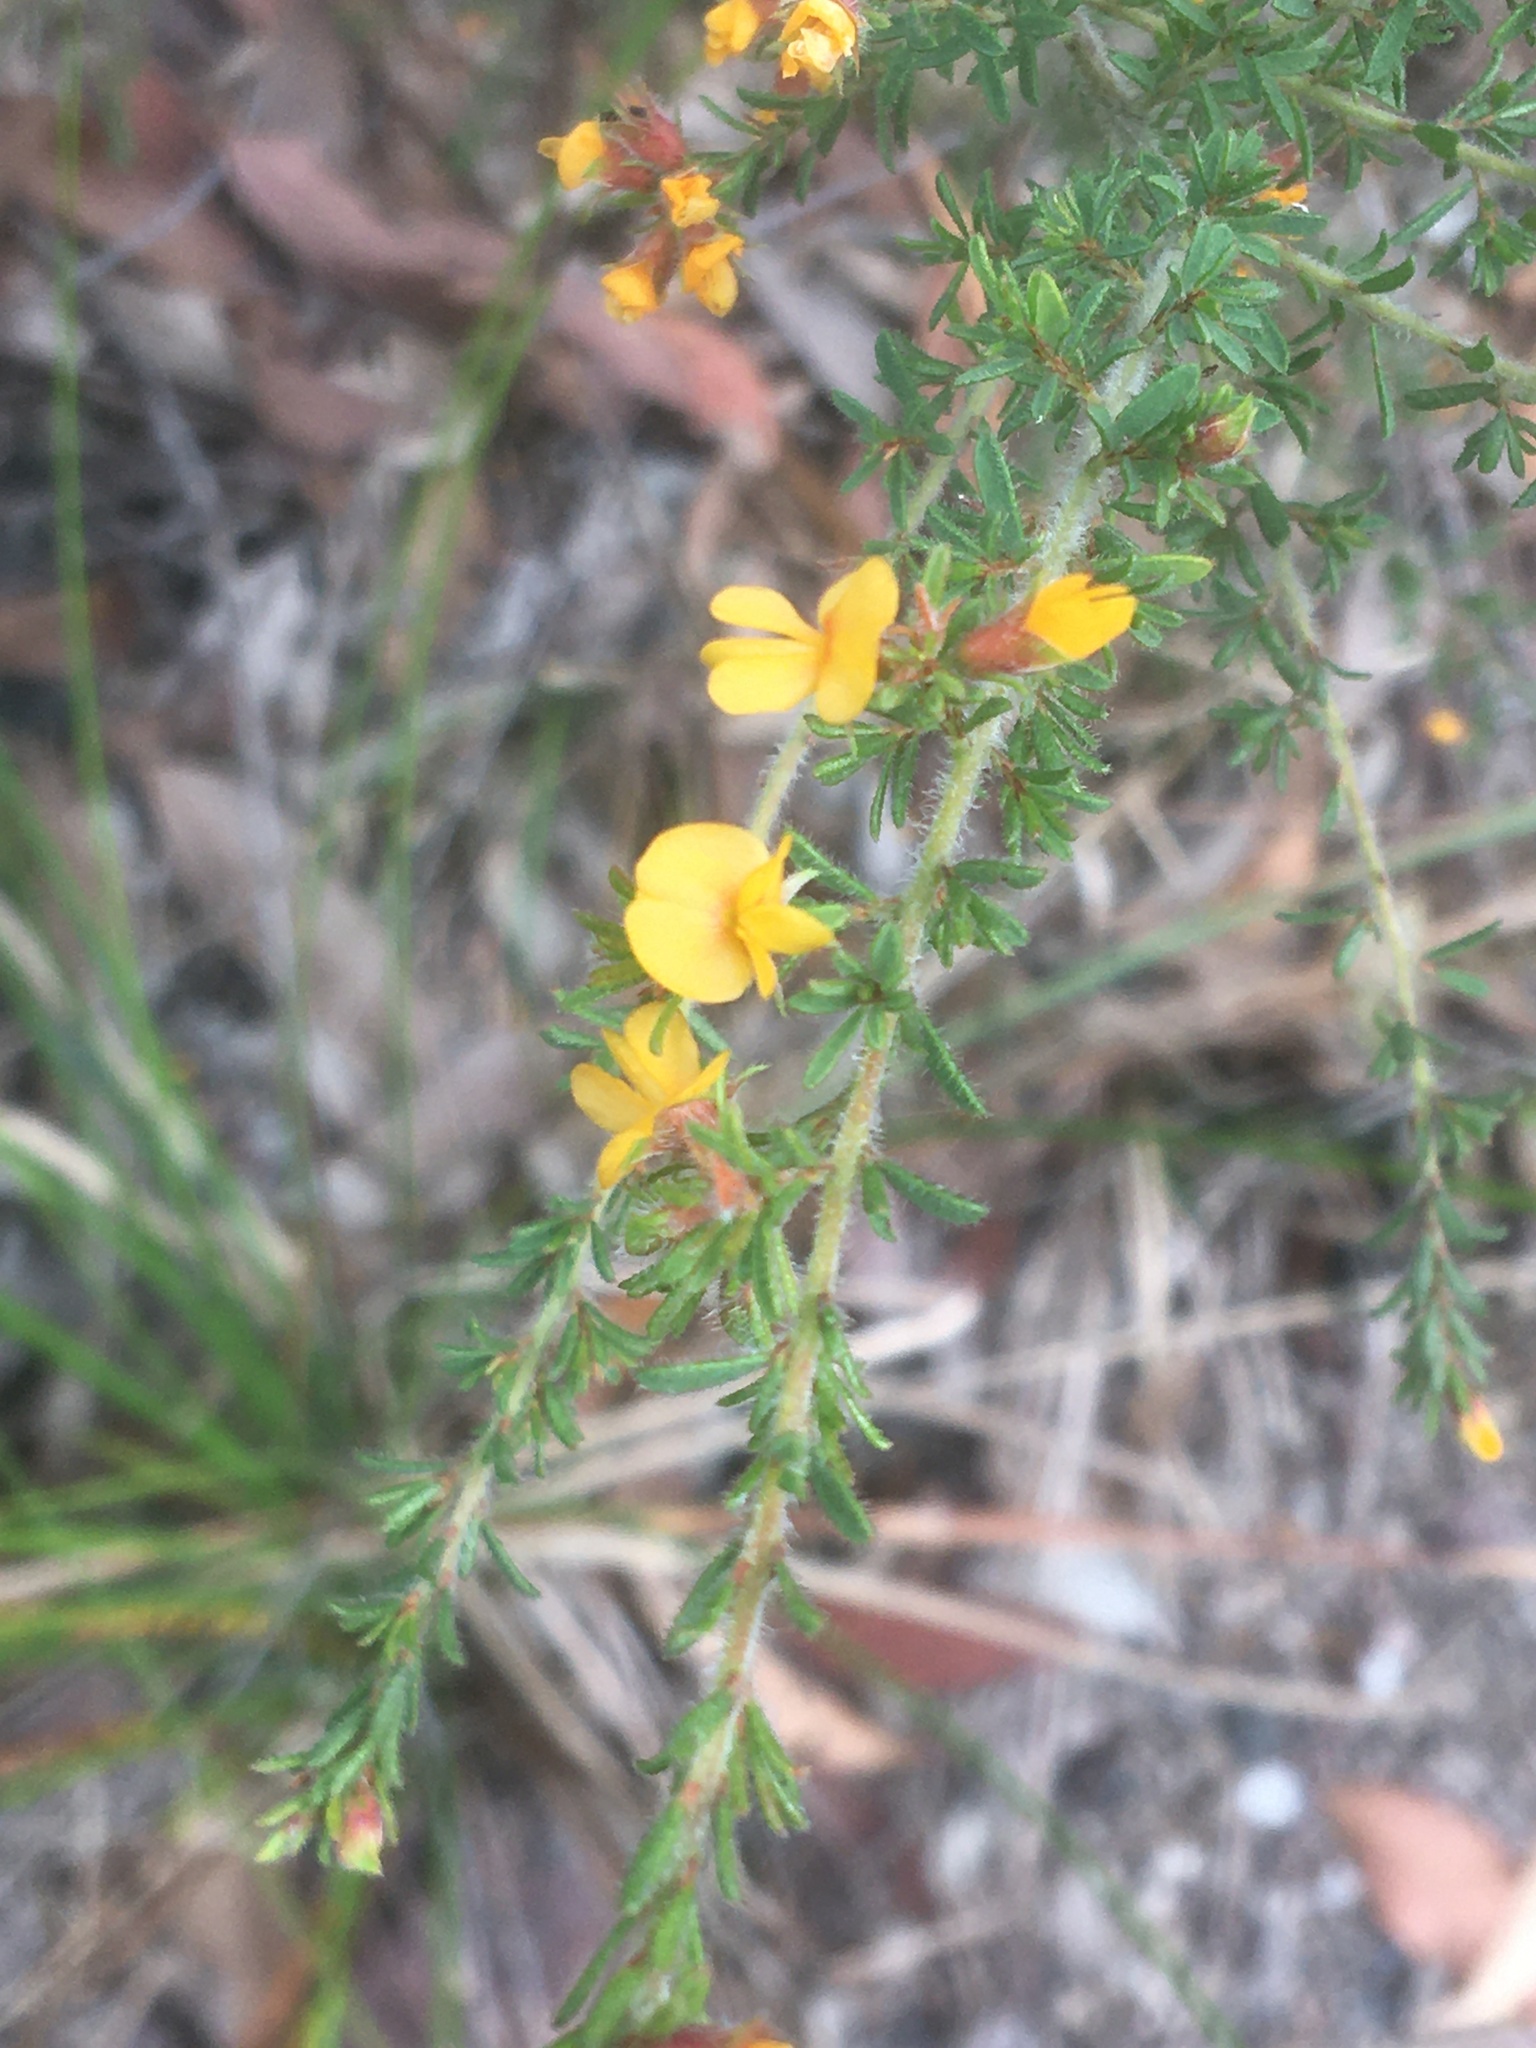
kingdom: Plantae
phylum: Tracheophyta
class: Magnoliopsida
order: Fabales
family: Fabaceae
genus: Pultenaea
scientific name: Pultenaea villosa
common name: Bronze bush-pea
